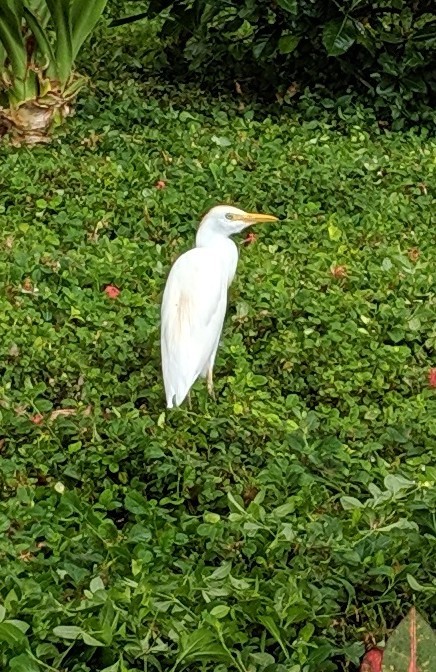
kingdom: Animalia
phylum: Chordata
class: Aves
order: Pelecaniformes
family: Ardeidae
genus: Bubulcus
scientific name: Bubulcus ibis
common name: Cattle egret
